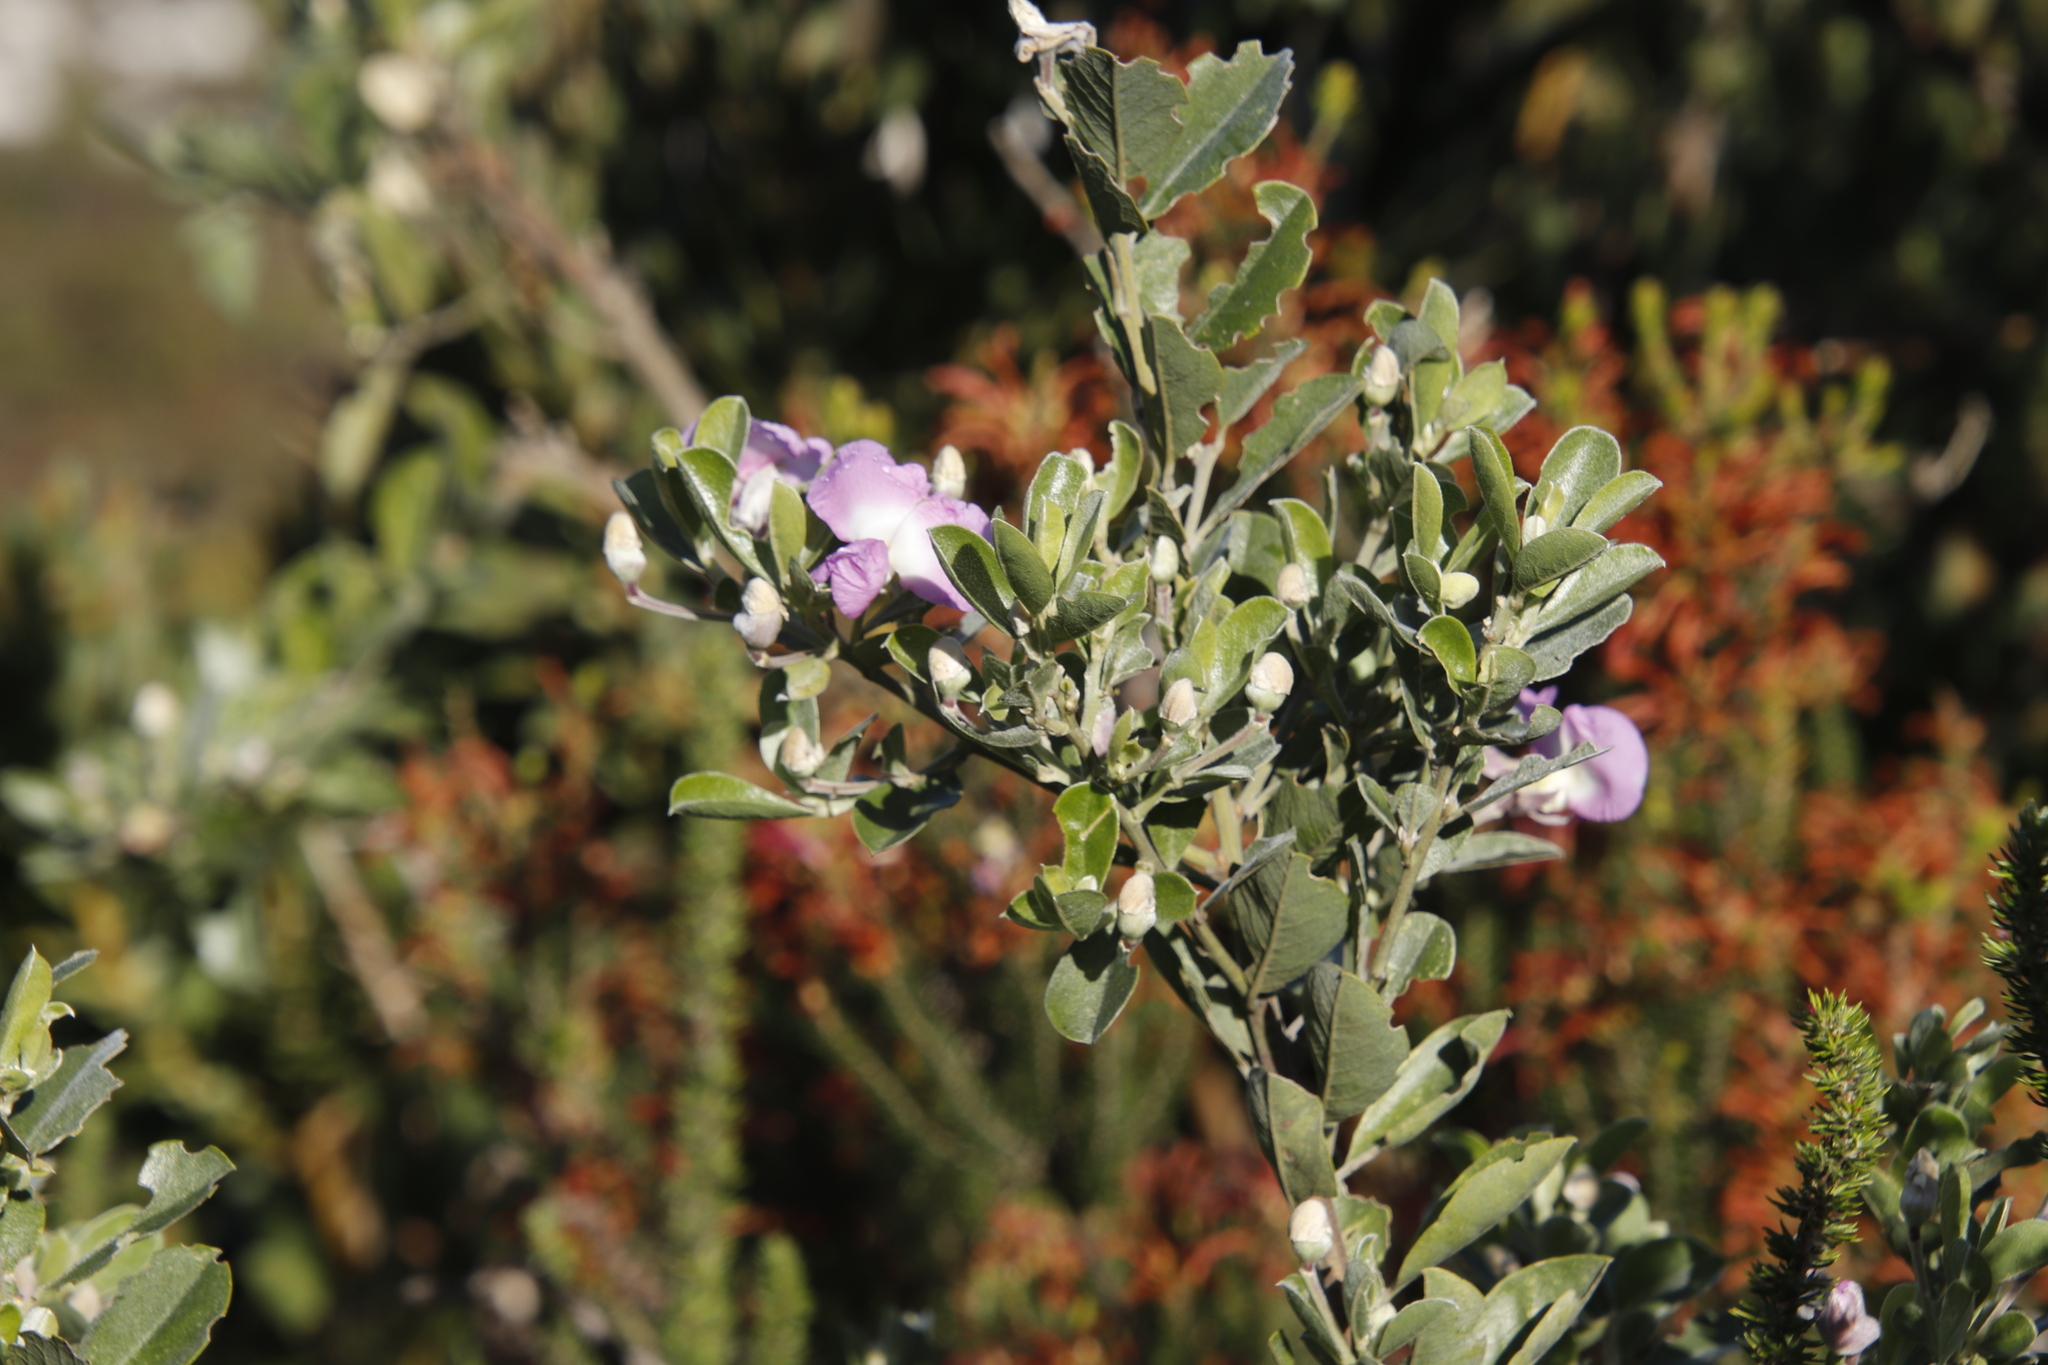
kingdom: Plantae
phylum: Tracheophyta
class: Magnoliopsida
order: Fabales
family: Fabaceae
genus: Podalyria
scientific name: Podalyria calyptrata
